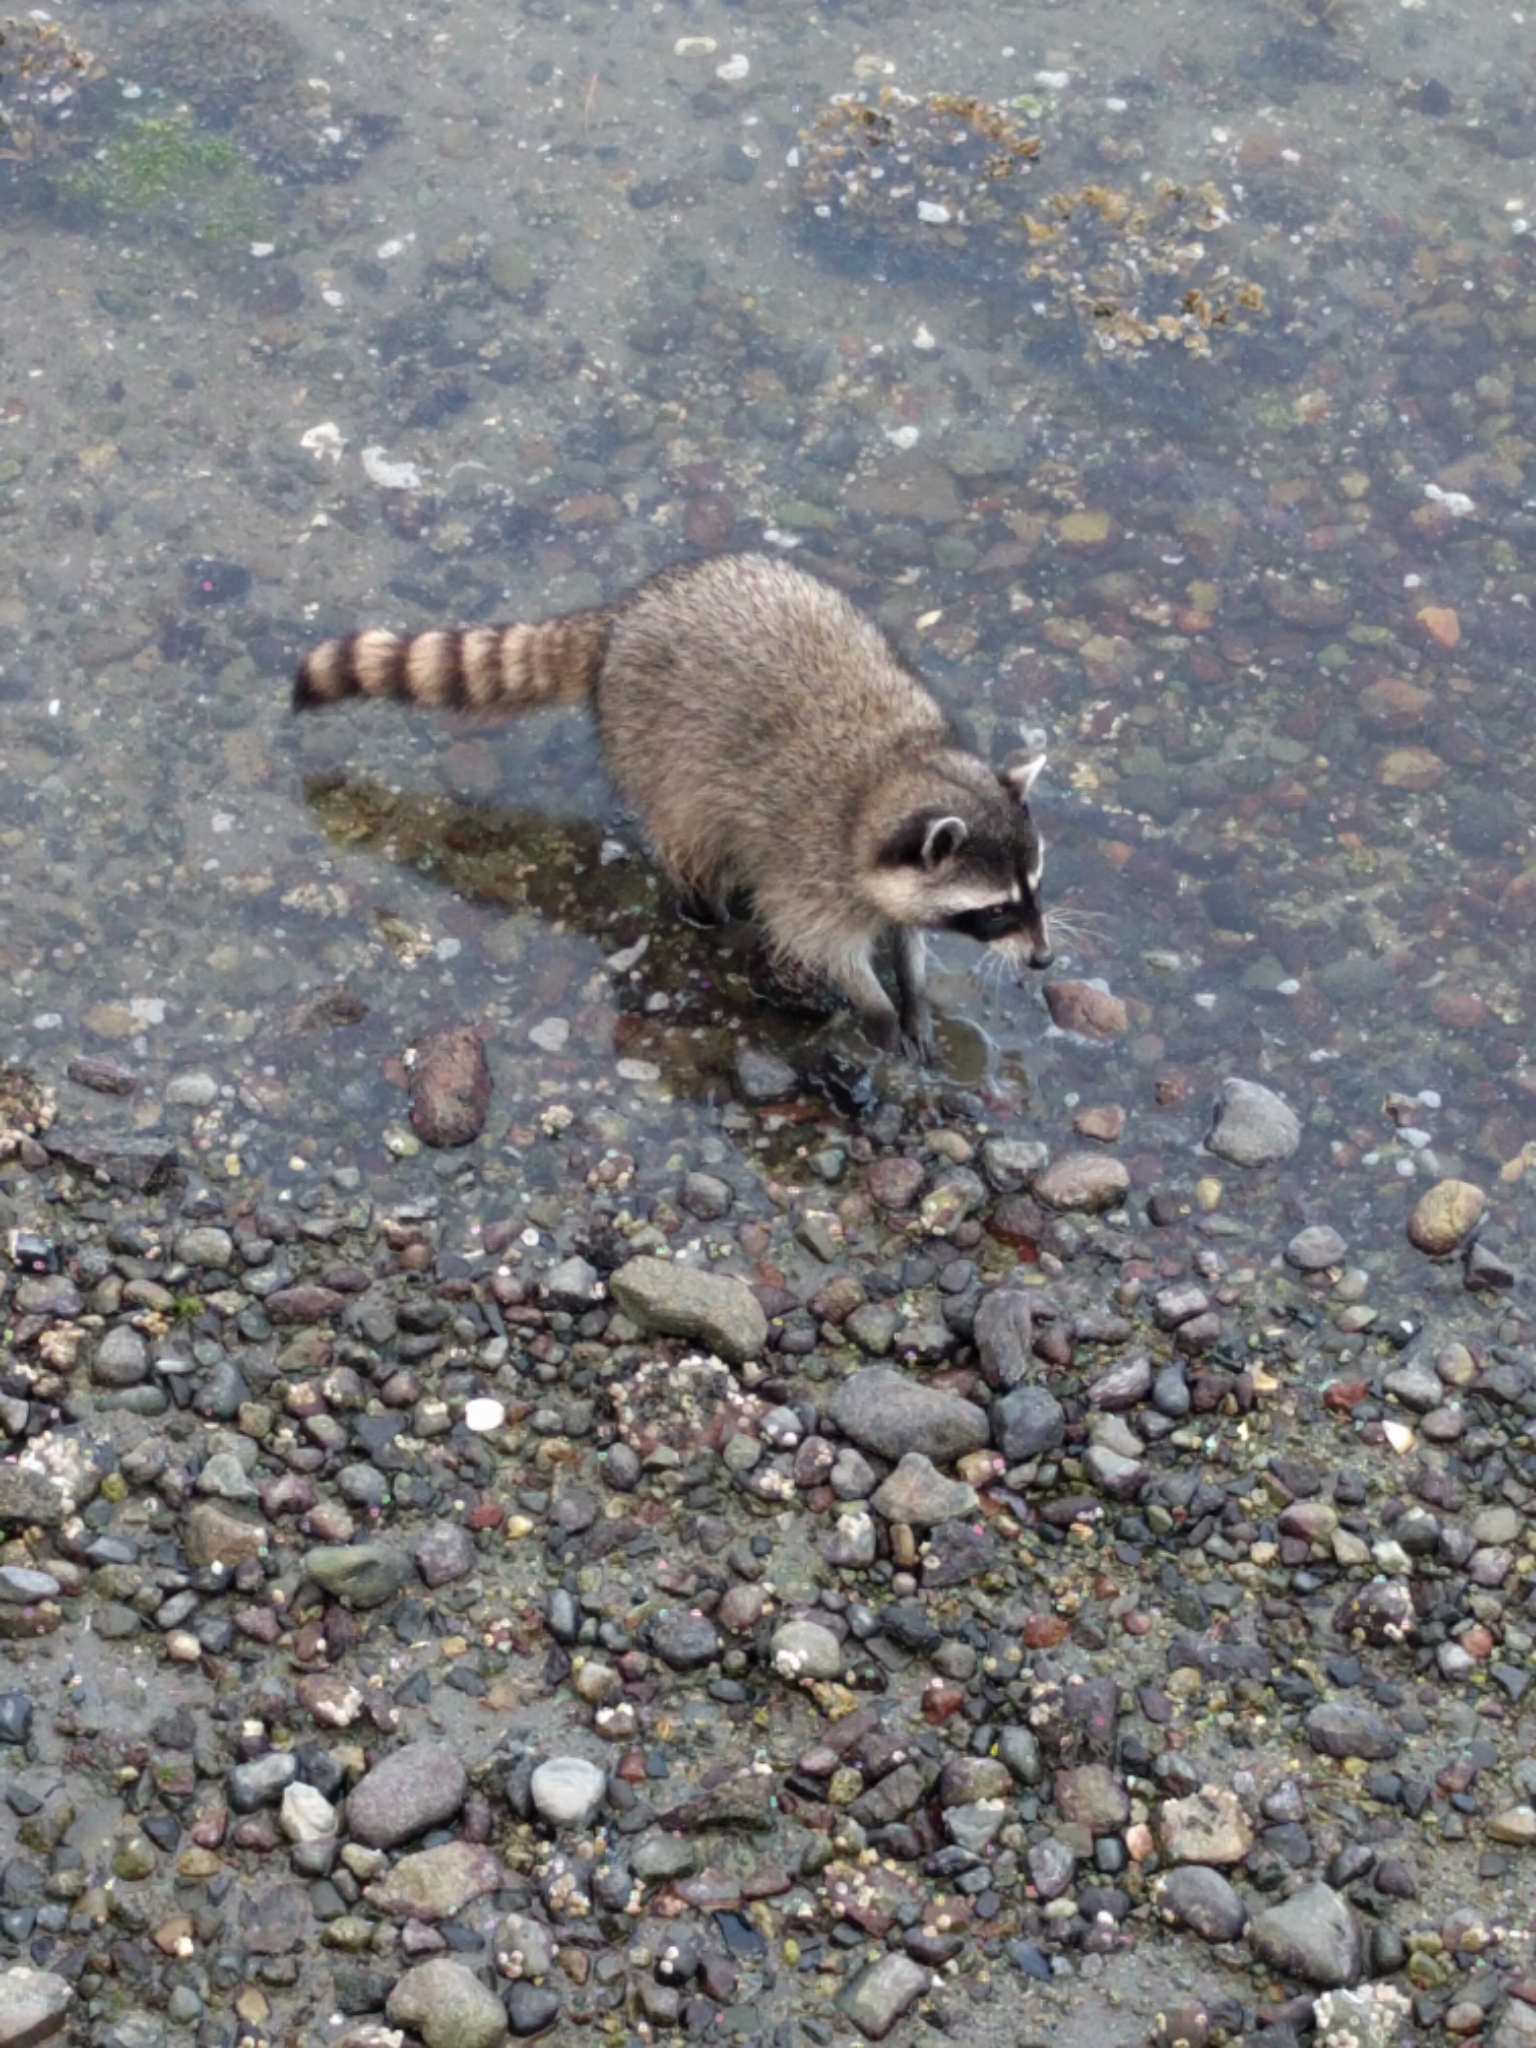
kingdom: Animalia
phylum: Chordata
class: Mammalia
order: Carnivora
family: Procyonidae
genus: Procyon
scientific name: Procyon lotor
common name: Raccoon
